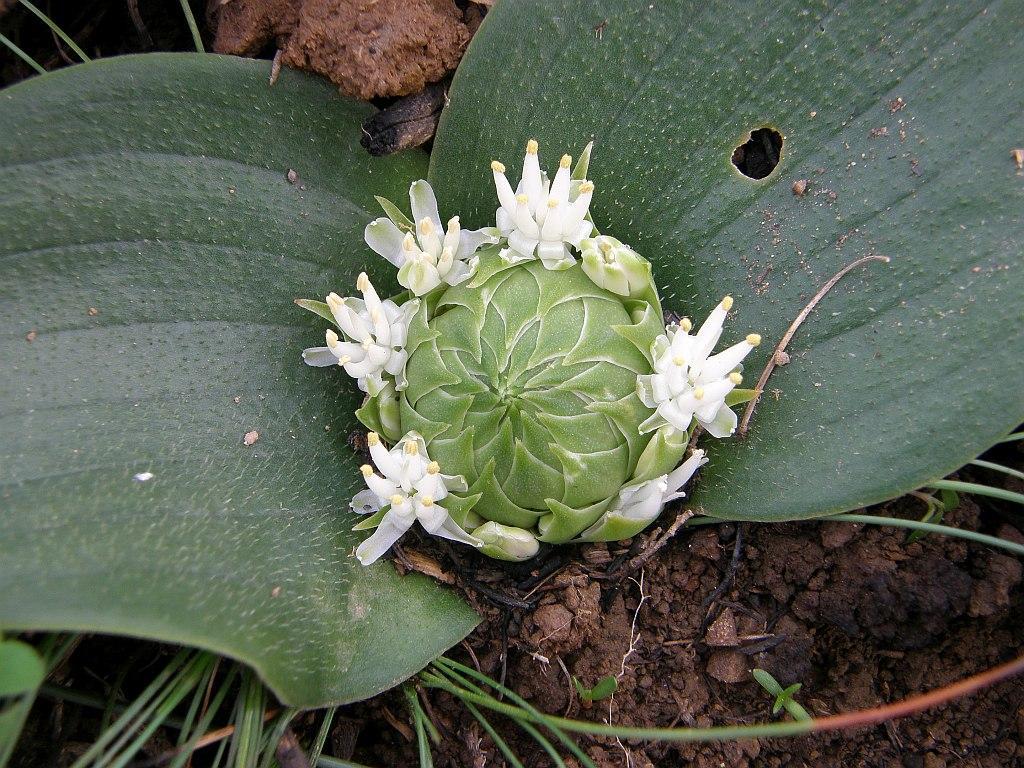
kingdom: Plantae
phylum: Tracheophyta
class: Liliopsida
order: Asparagales
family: Asparagaceae
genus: Massonia
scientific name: Massonia setulosa
